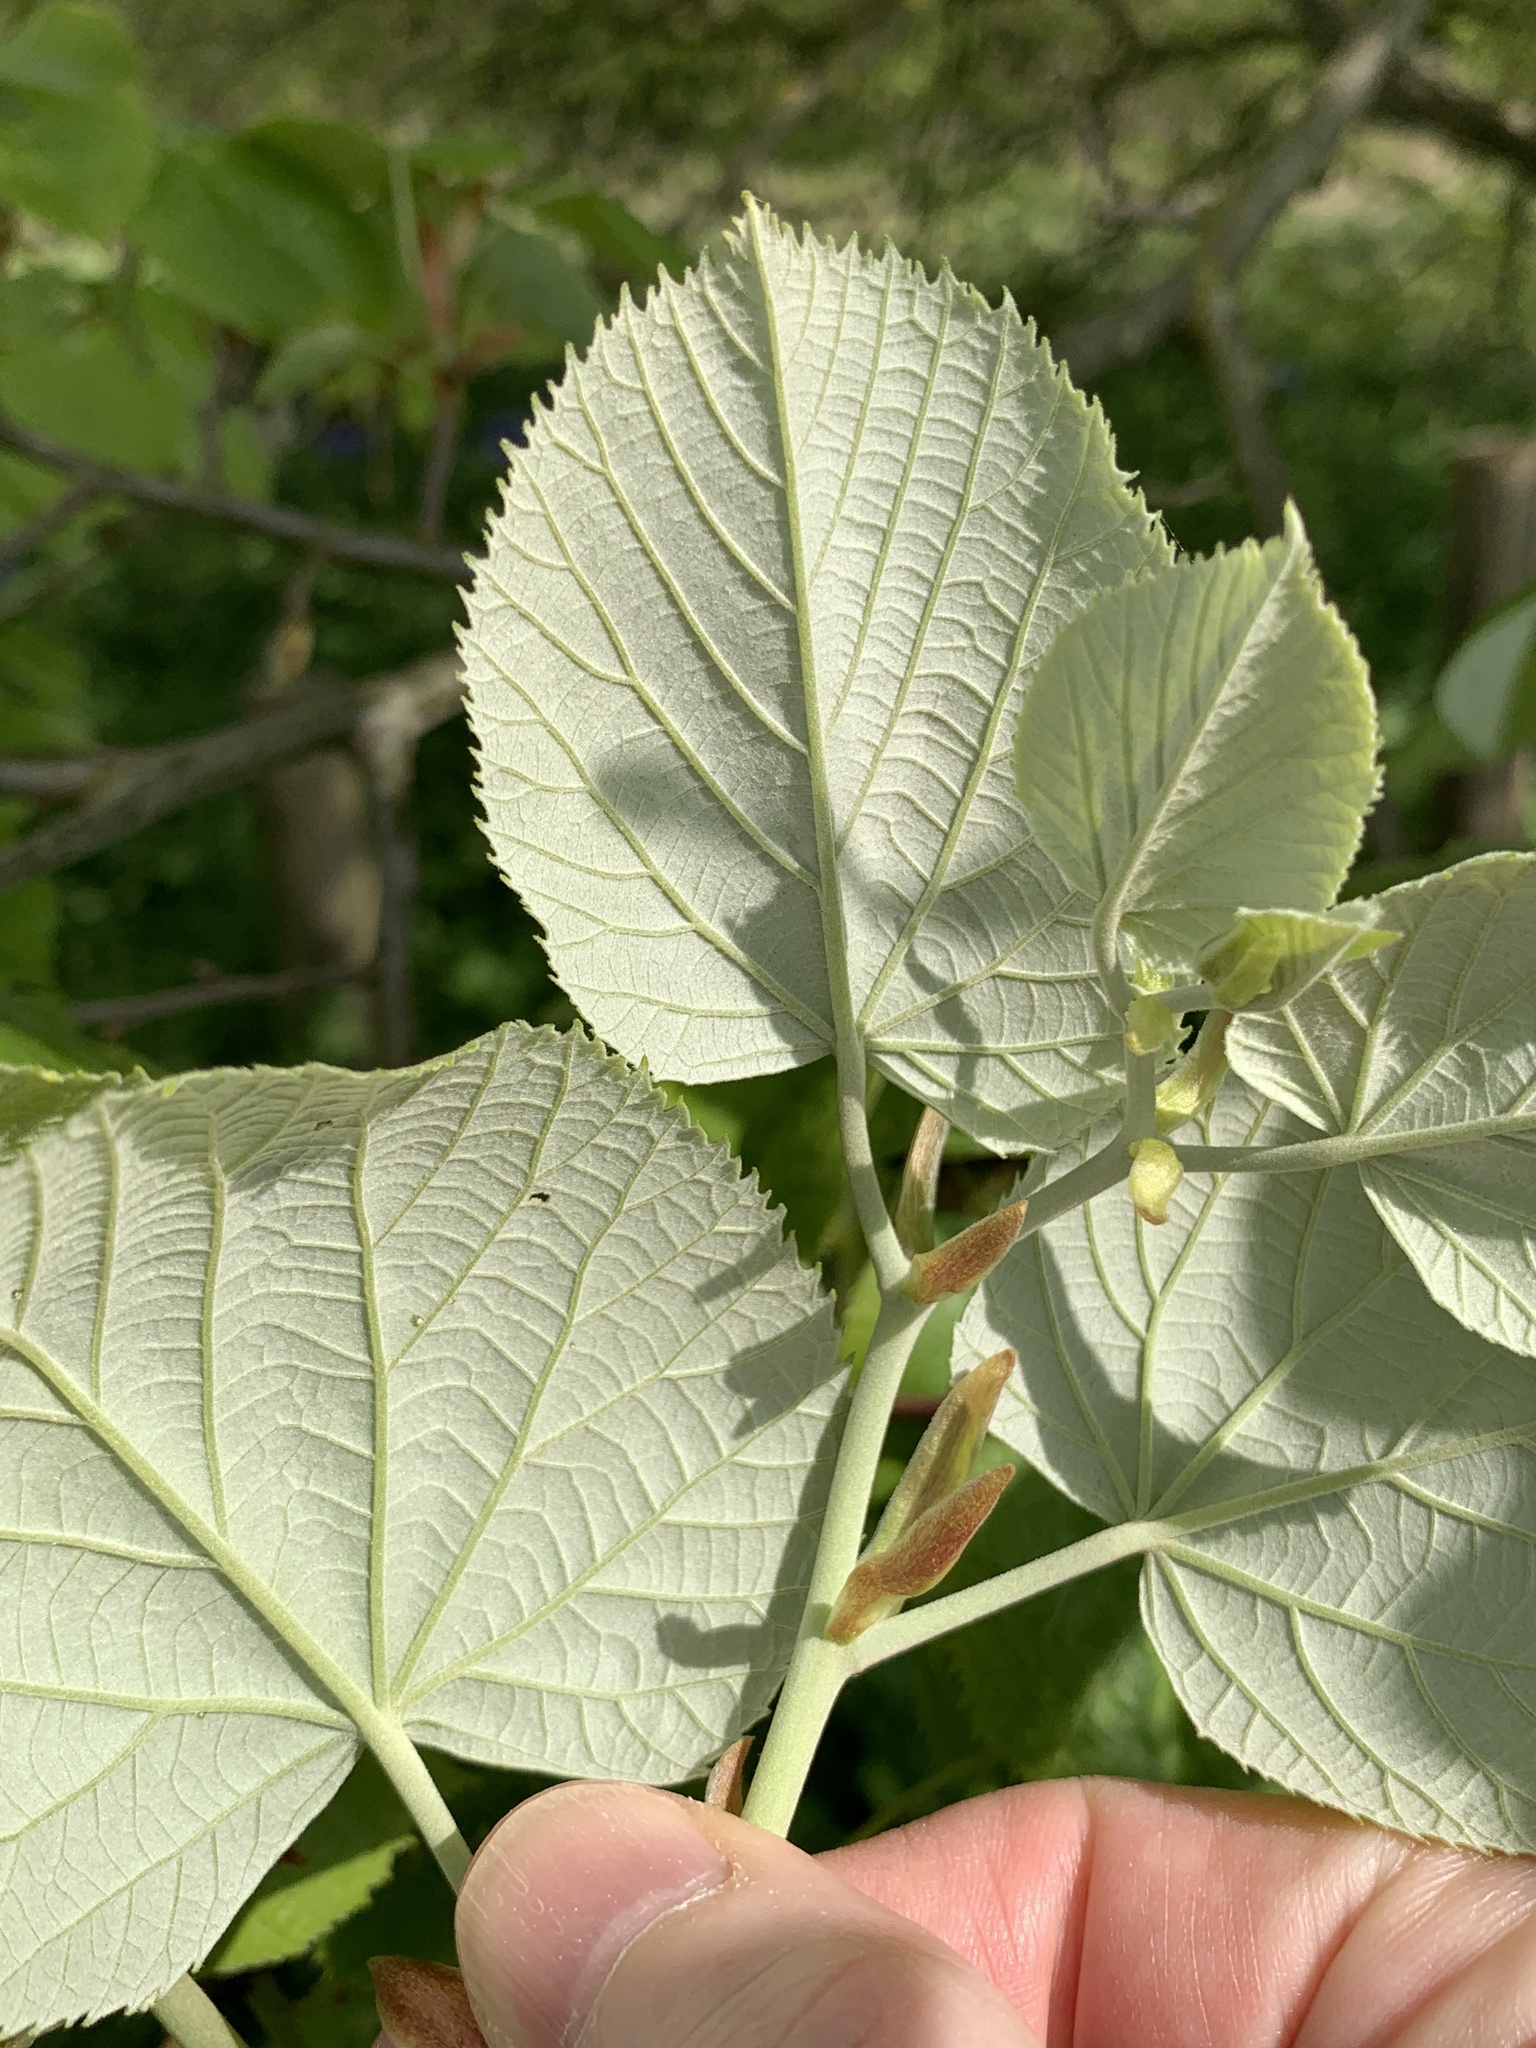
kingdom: Plantae
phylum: Tracheophyta
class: Magnoliopsida
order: Malvales
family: Malvaceae
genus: Tilia
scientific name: Tilia tomentosa
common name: Silver lime
